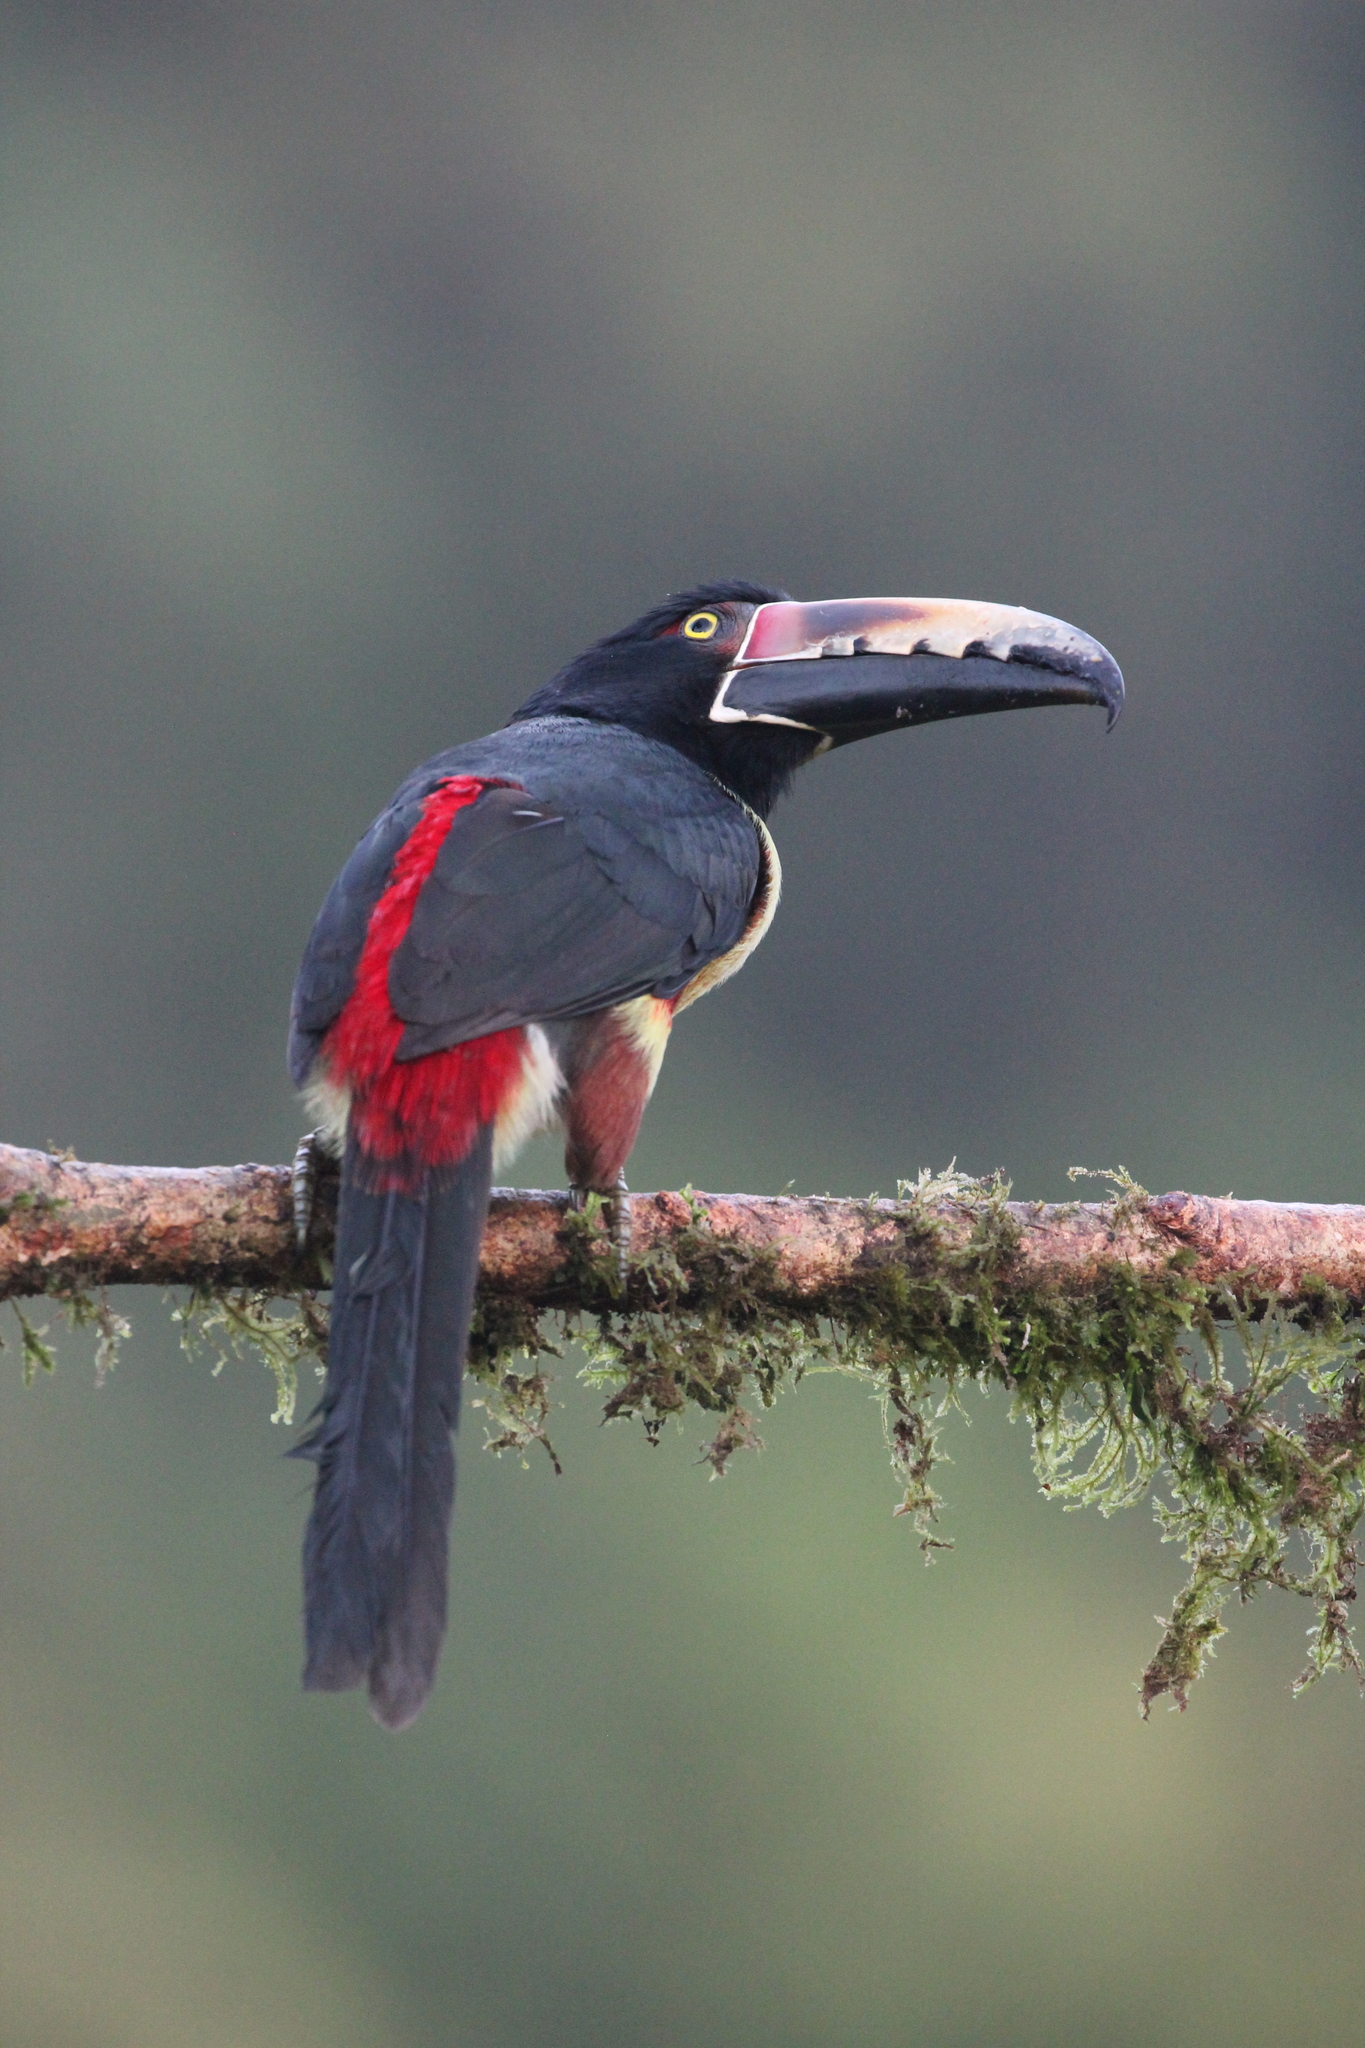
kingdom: Animalia
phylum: Chordata
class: Aves
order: Piciformes
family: Ramphastidae
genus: Pteroglossus
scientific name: Pteroglossus torquatus
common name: Collared aracari
